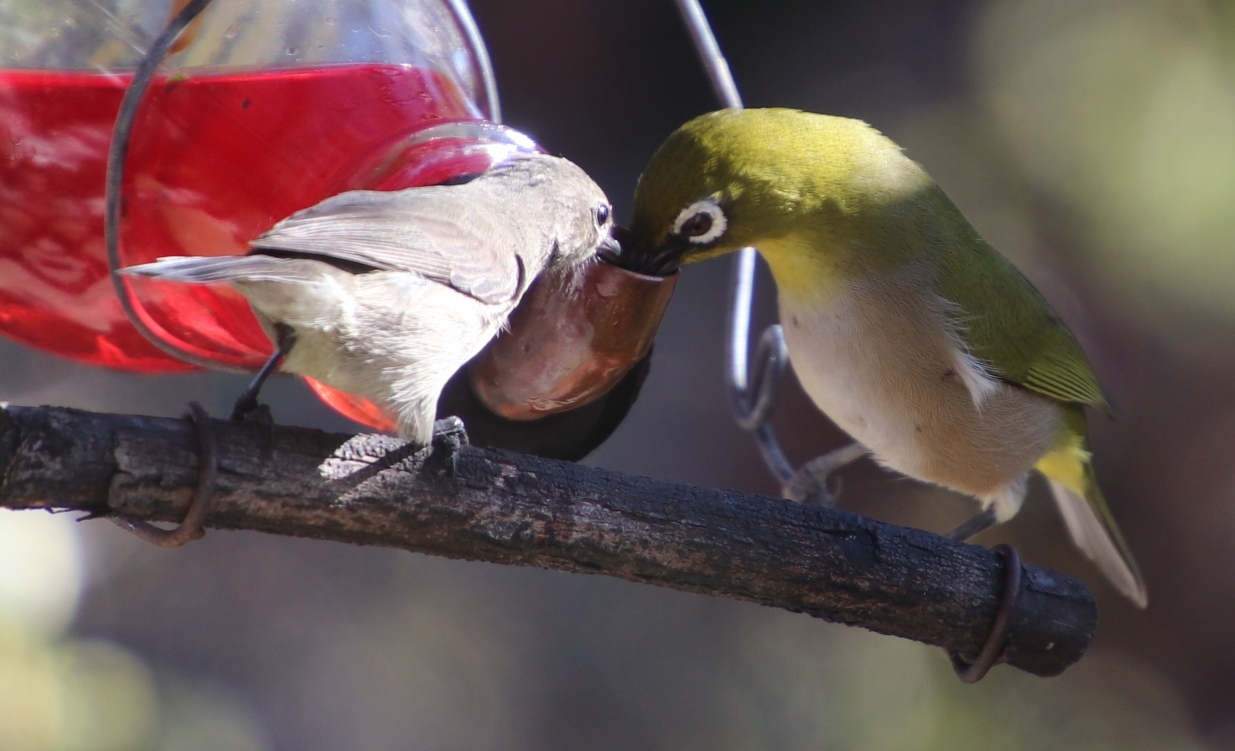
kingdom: Animalia
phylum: Chordata
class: Aves
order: Passeriformes
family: Zosteropidae
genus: Zosterops
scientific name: Zosterops virens
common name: Cape white-eye
